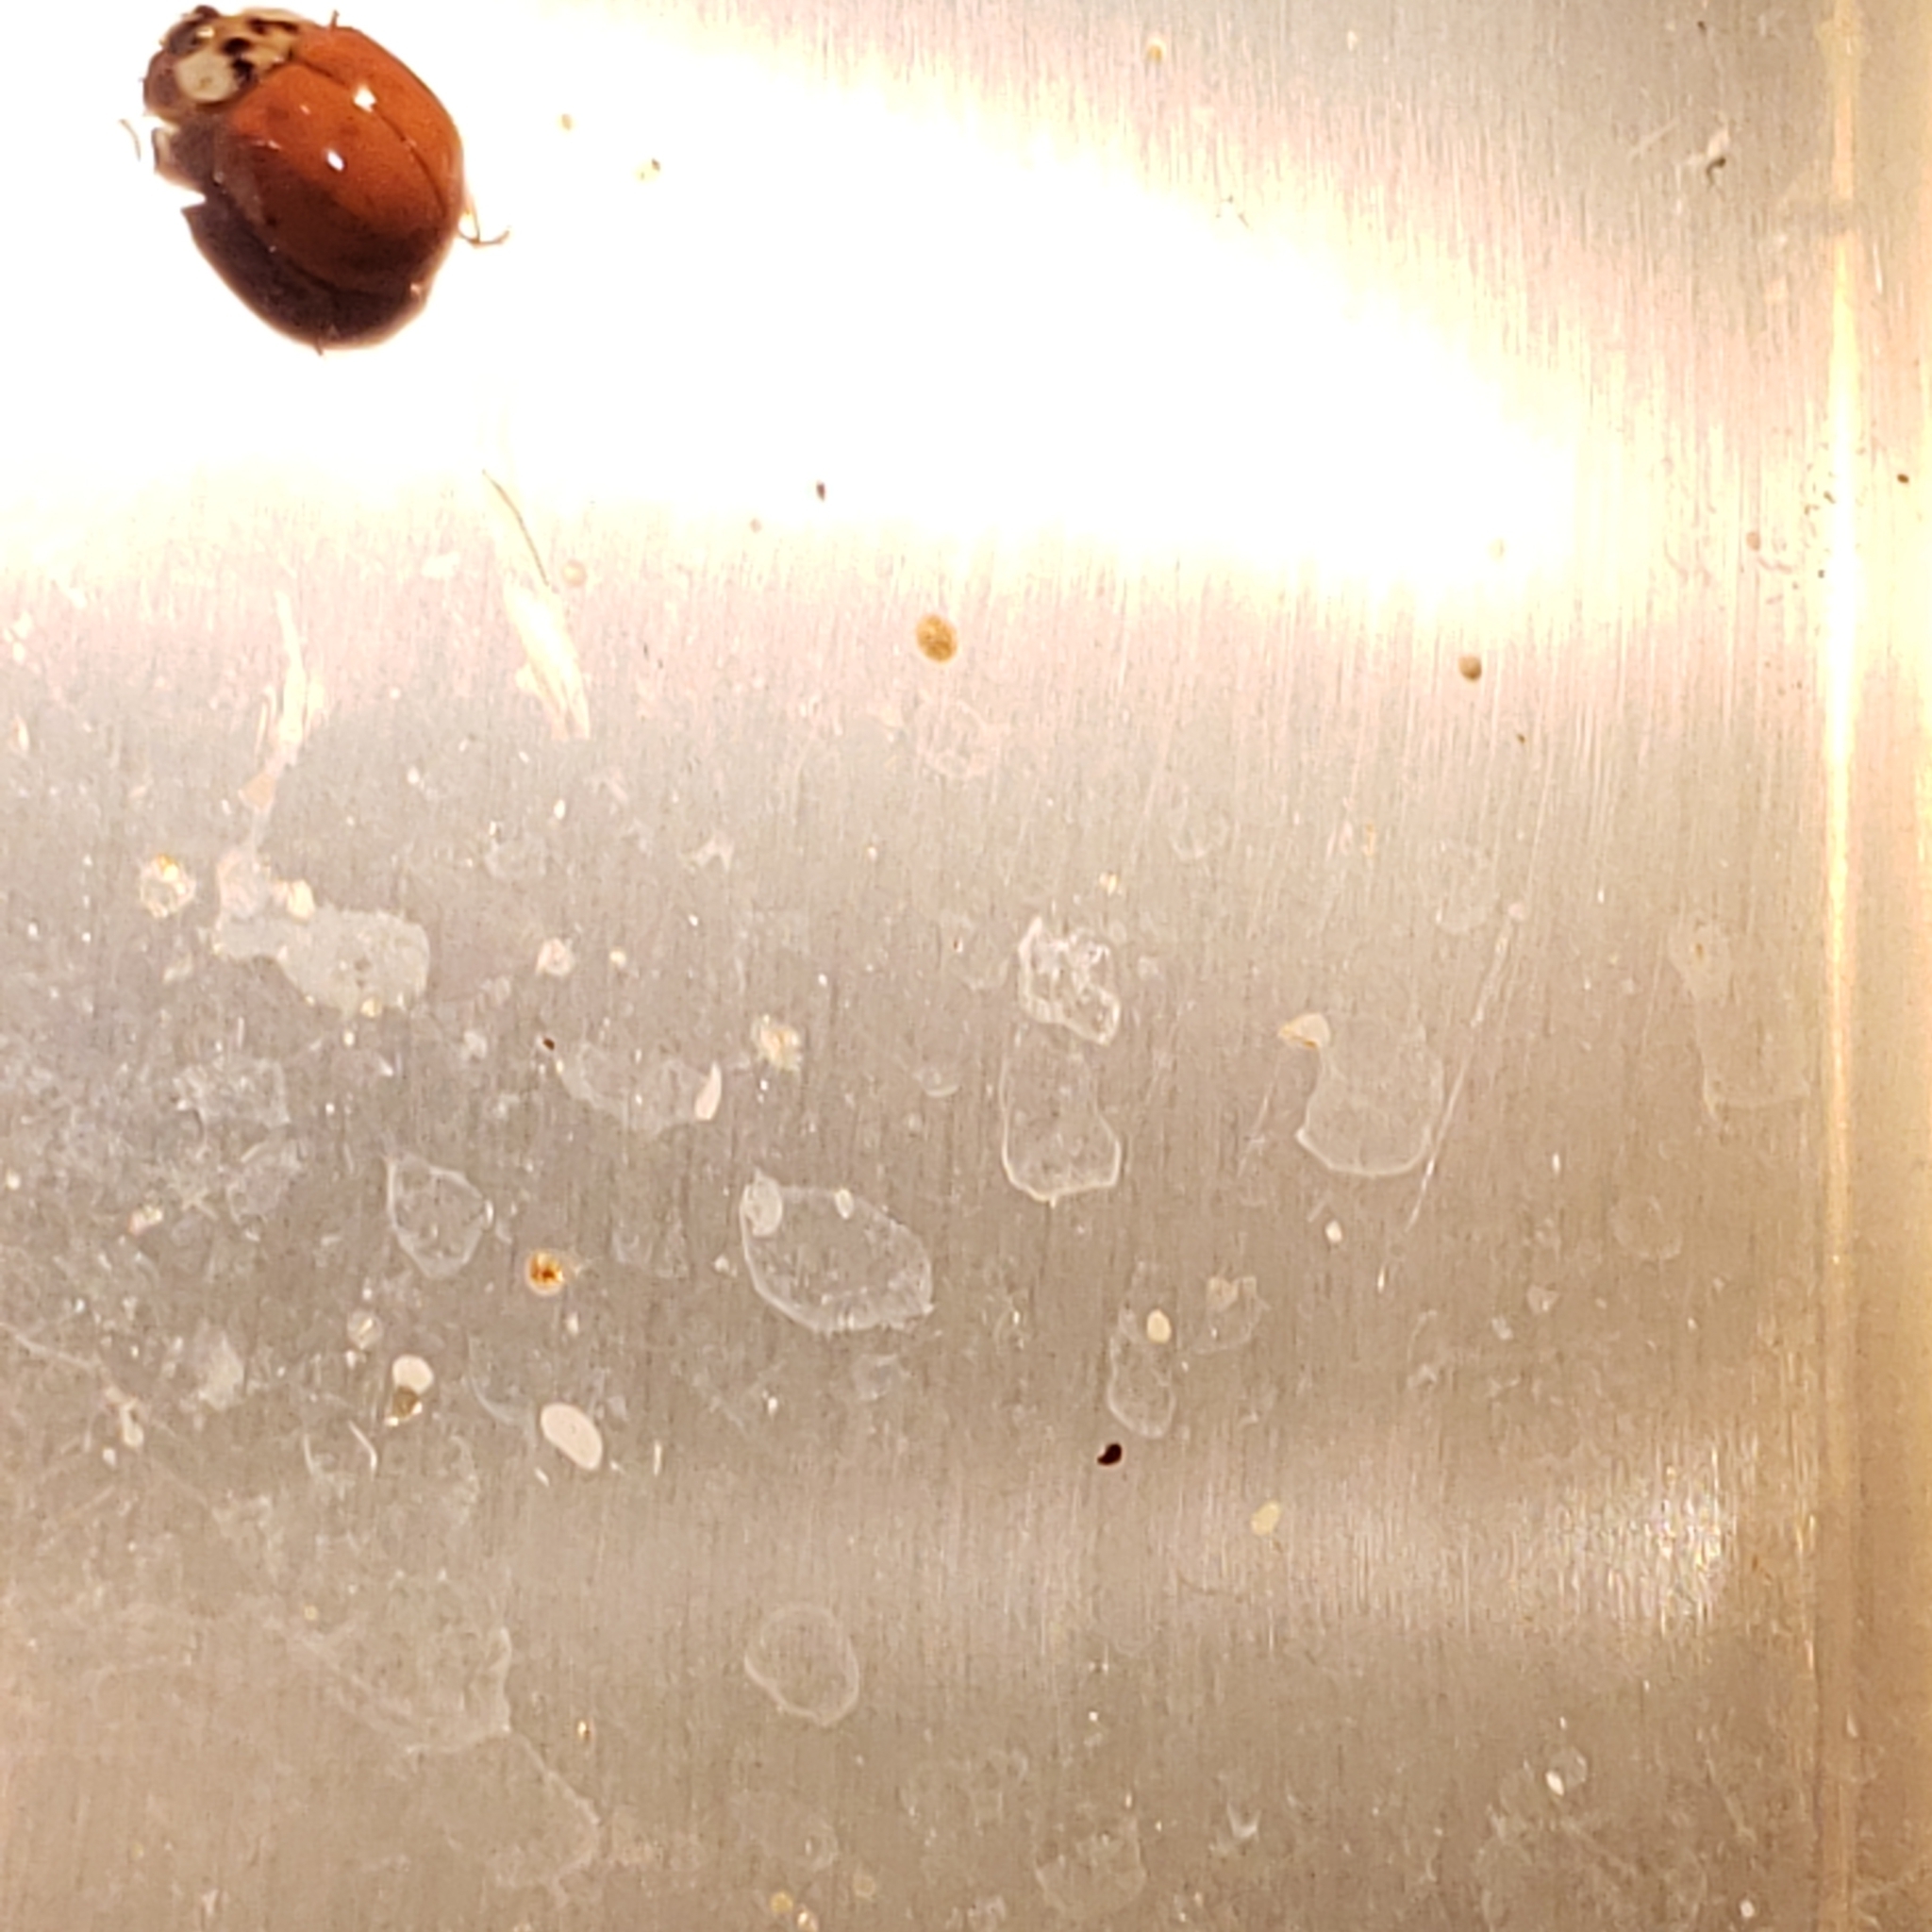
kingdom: Animalia
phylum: Arthropoda
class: Insecta
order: Coleoptera
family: Coccinellidae
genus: Harmonia
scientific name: Harmonia axyridis
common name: Harlequin ladybird
